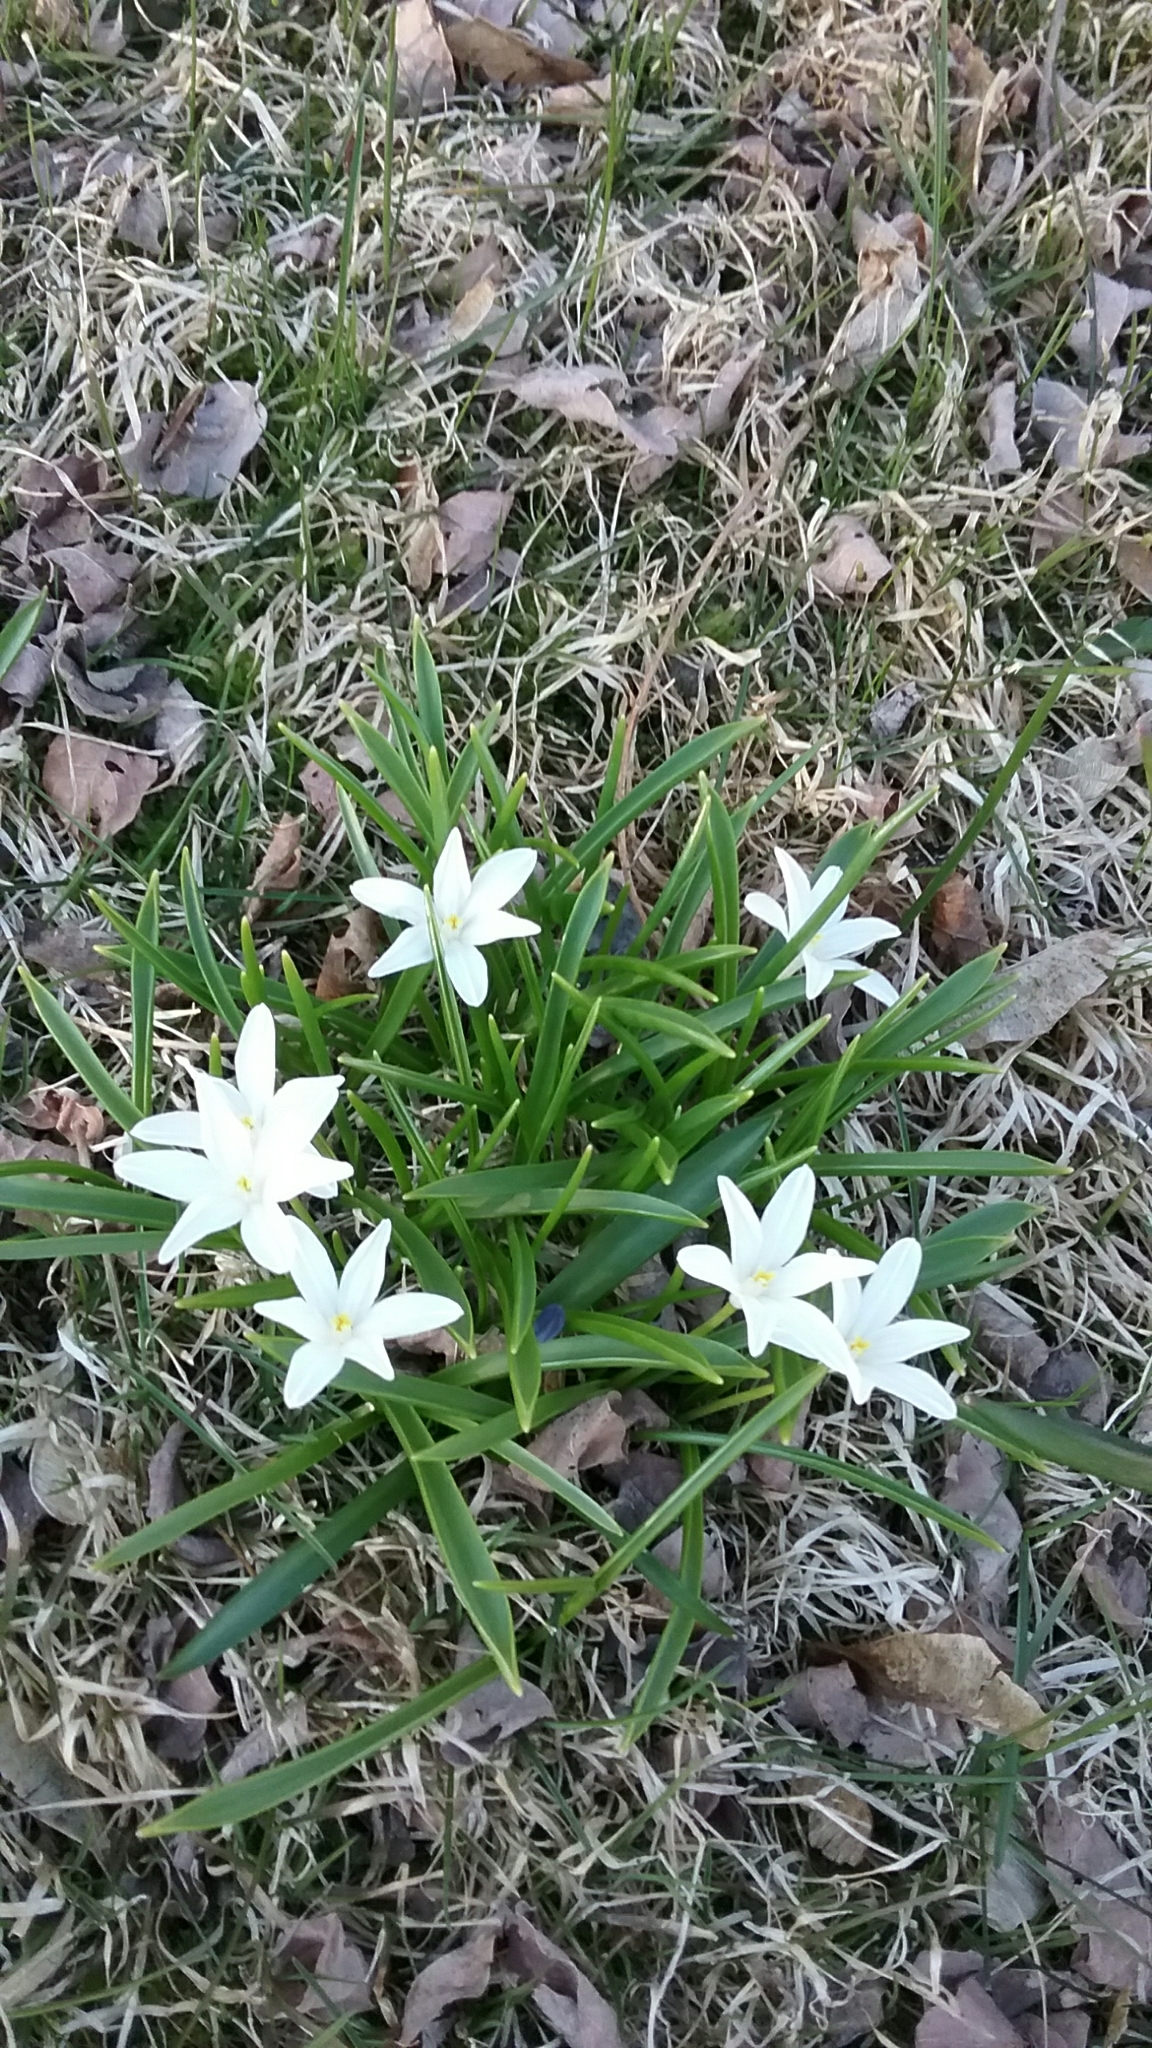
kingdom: Plantae
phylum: Tracheophyta
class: Liliopsida
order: Asparagales
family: Asparagaceae
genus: Ornithogalum
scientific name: Ornithogalum umbellatum
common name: Garden star-of-bethlehem
